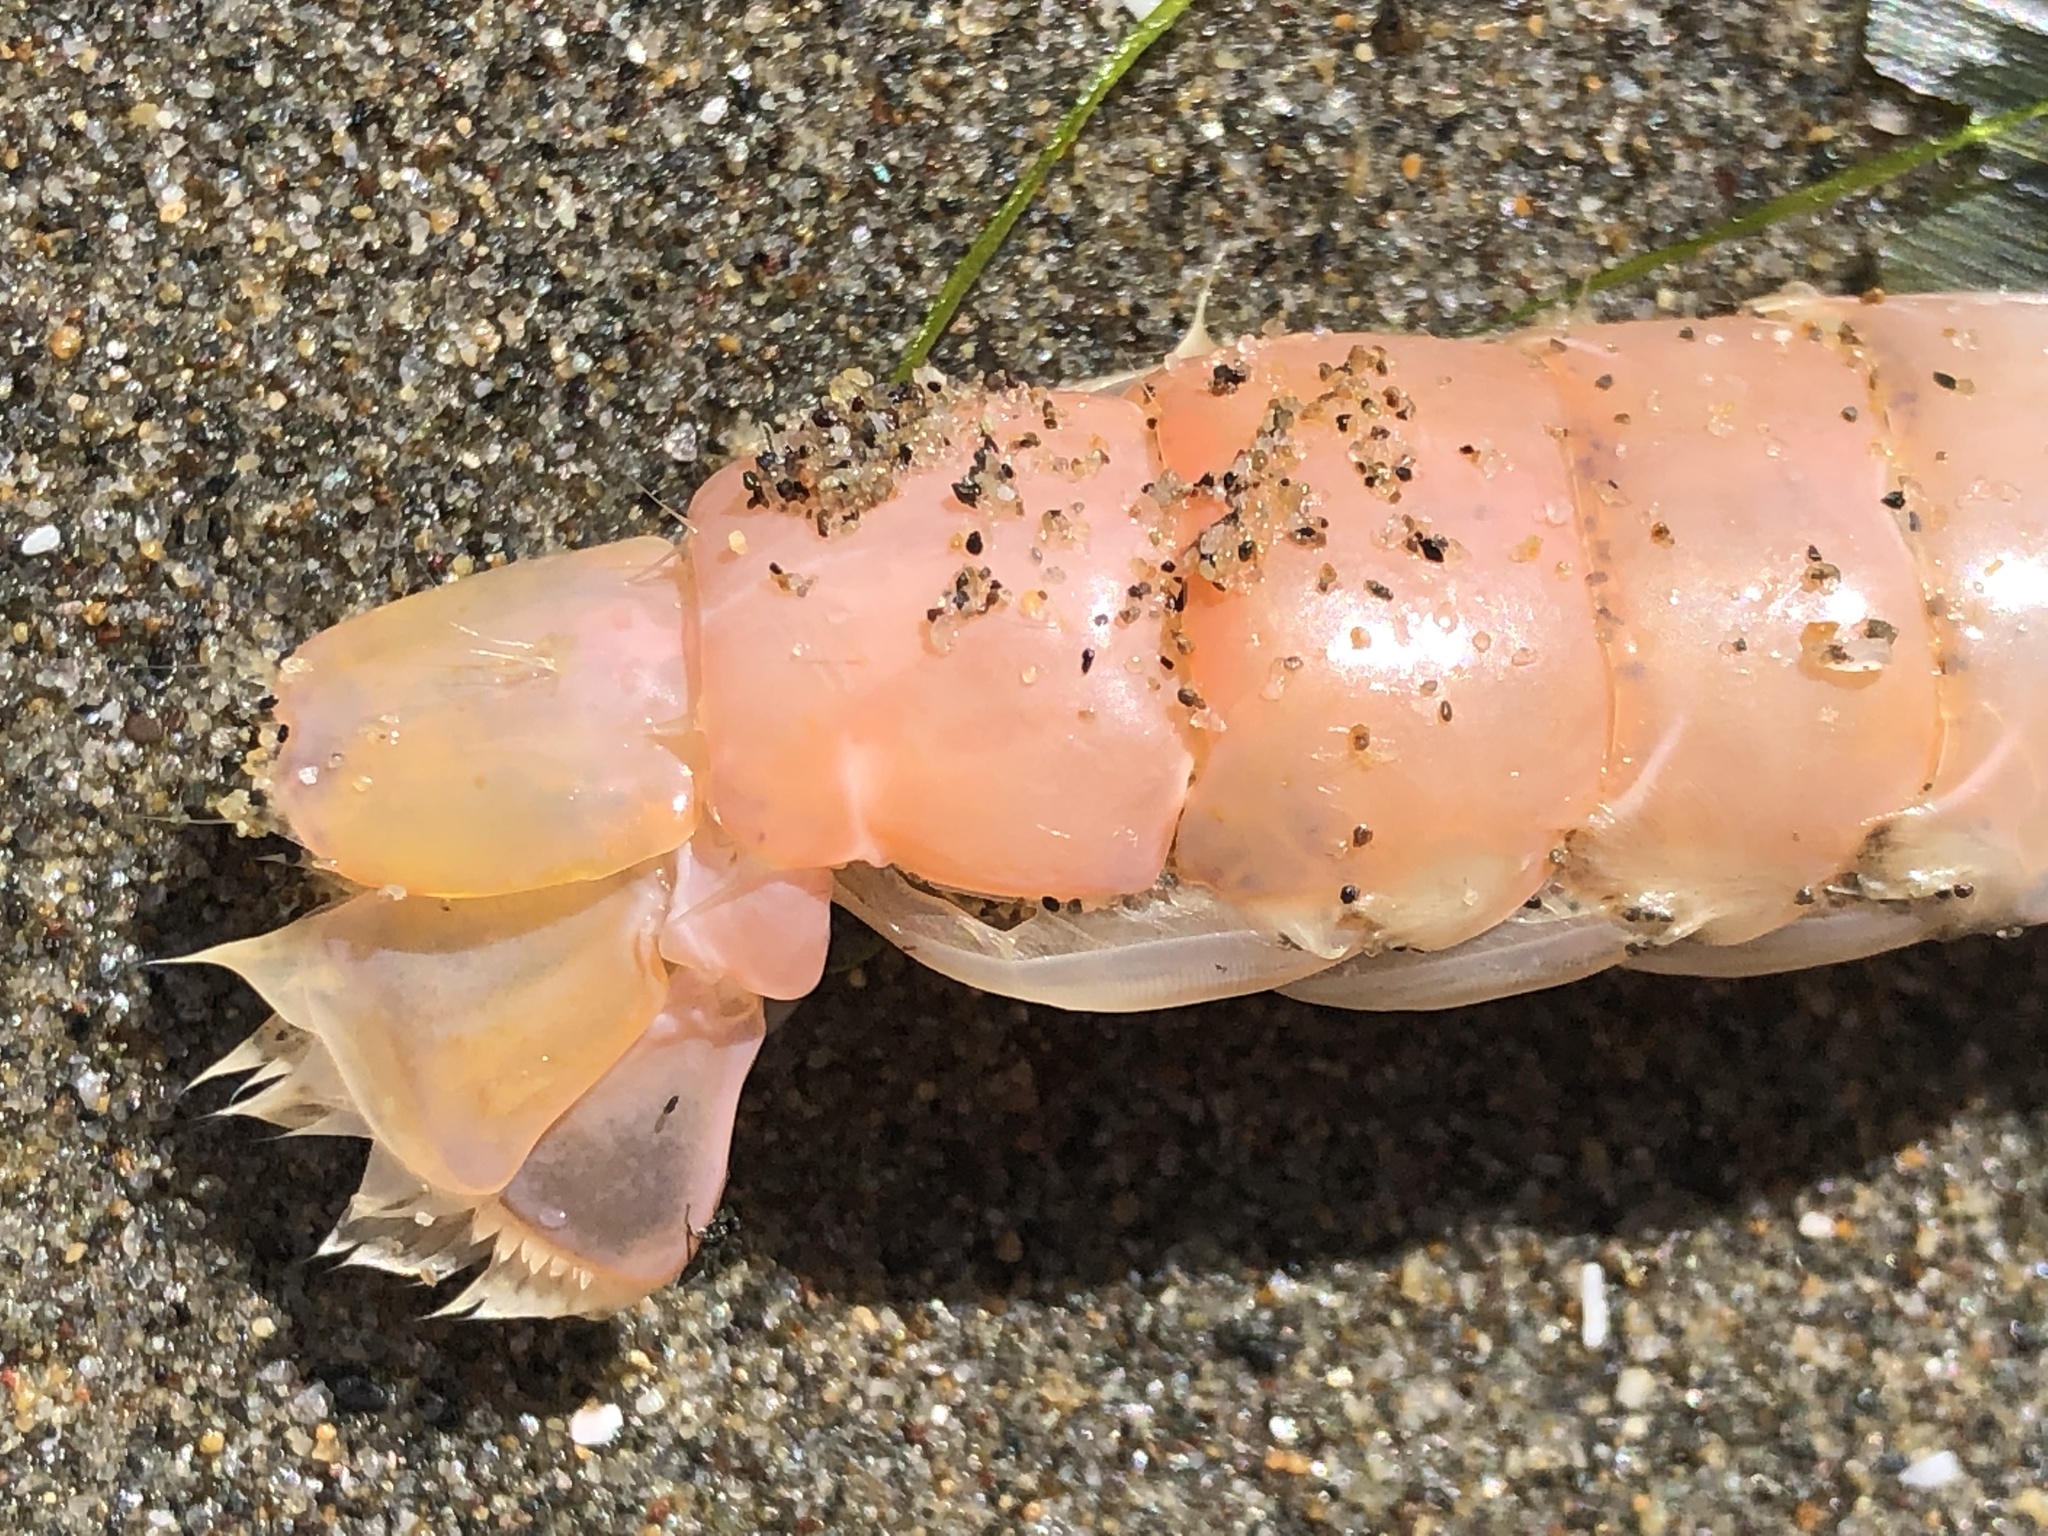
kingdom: Animalia
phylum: Arthropoda
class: Malacostraca
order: Decapoda
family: Callianassidae
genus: Neotrypaea
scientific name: Neotrypaea californiensis
